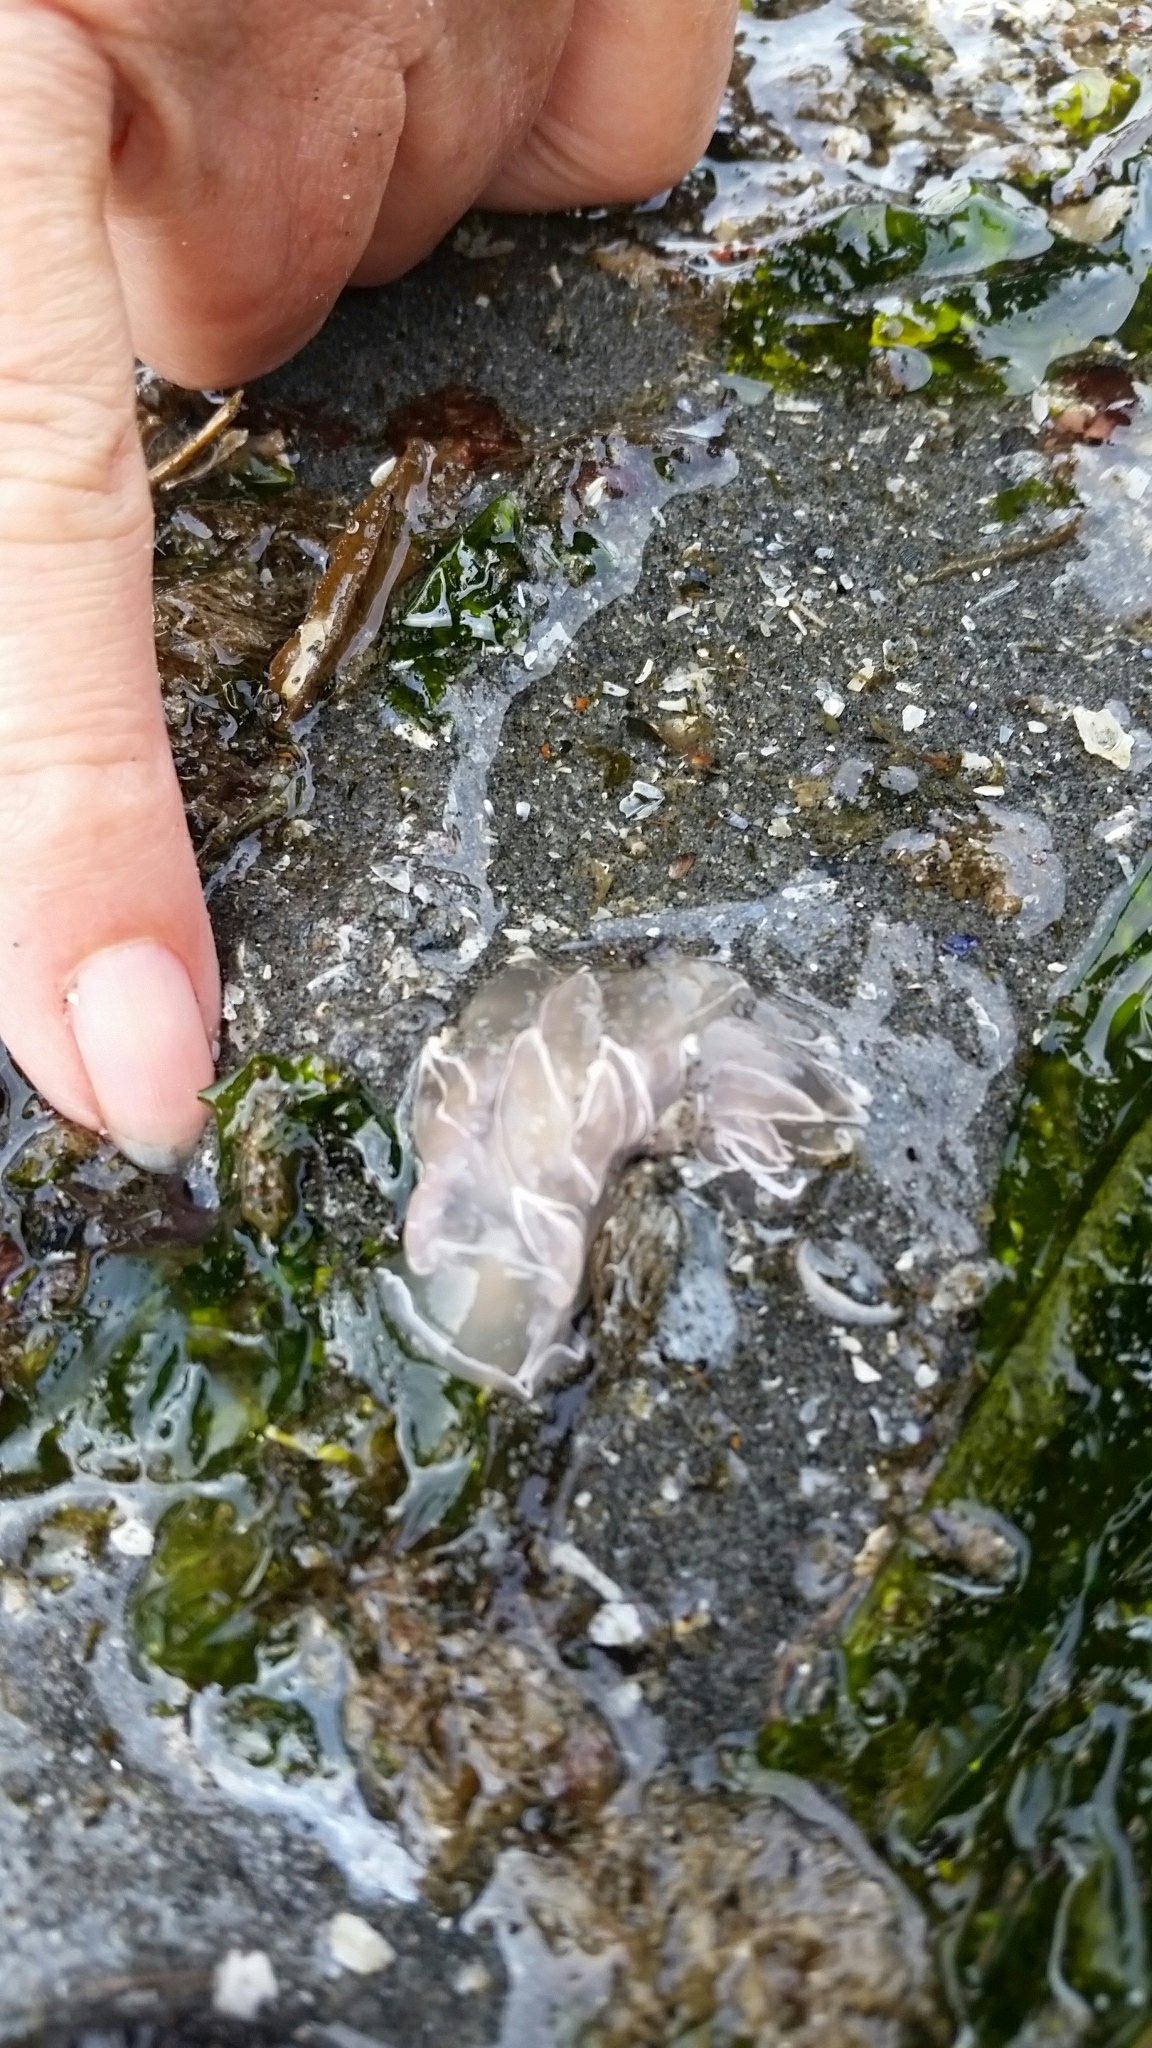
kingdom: Animalia
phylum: Mollusca
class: Gastropoda
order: Nudibranchia
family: Dironidae
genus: Dirona
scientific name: Dirona albolineata
